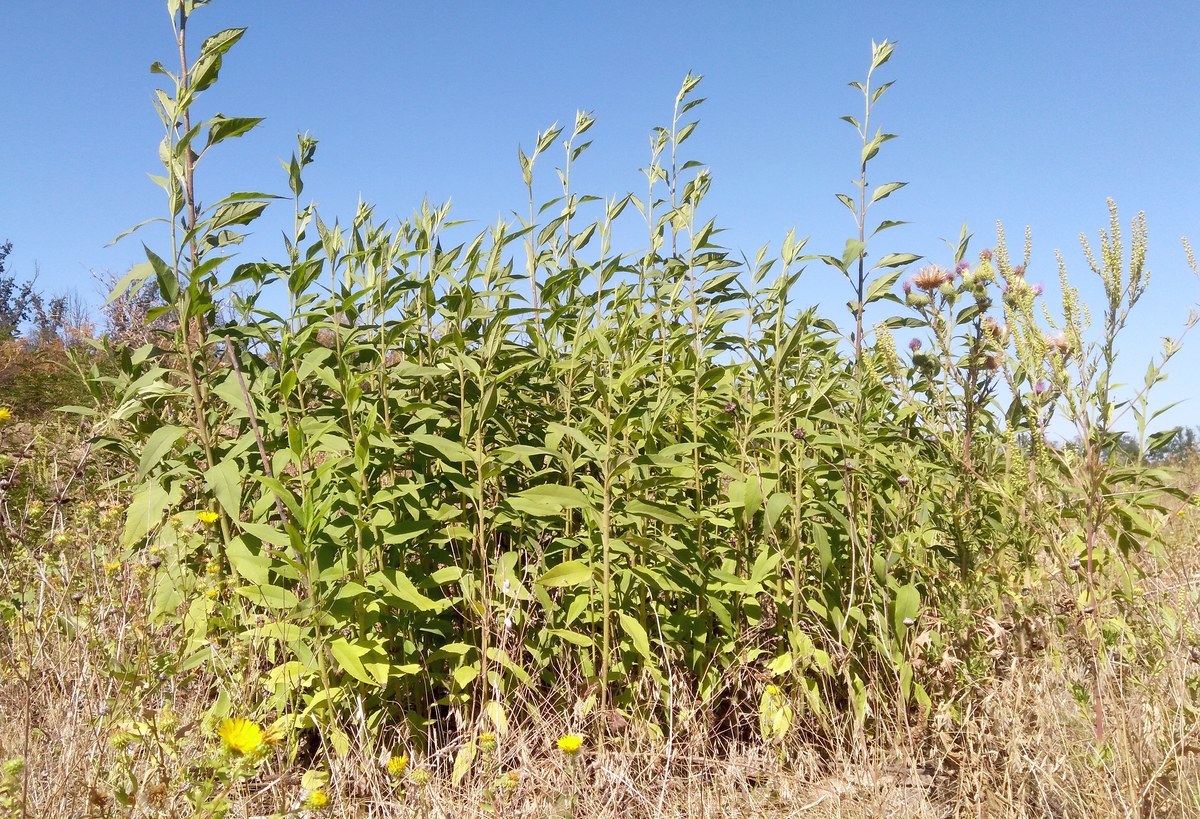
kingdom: Plantae
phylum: Tracheophyta
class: Magnoliopsida
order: Asterales
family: Asteraceae
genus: Helianthus
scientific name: Helianthus tuberosus
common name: Jerusalem artichoke
